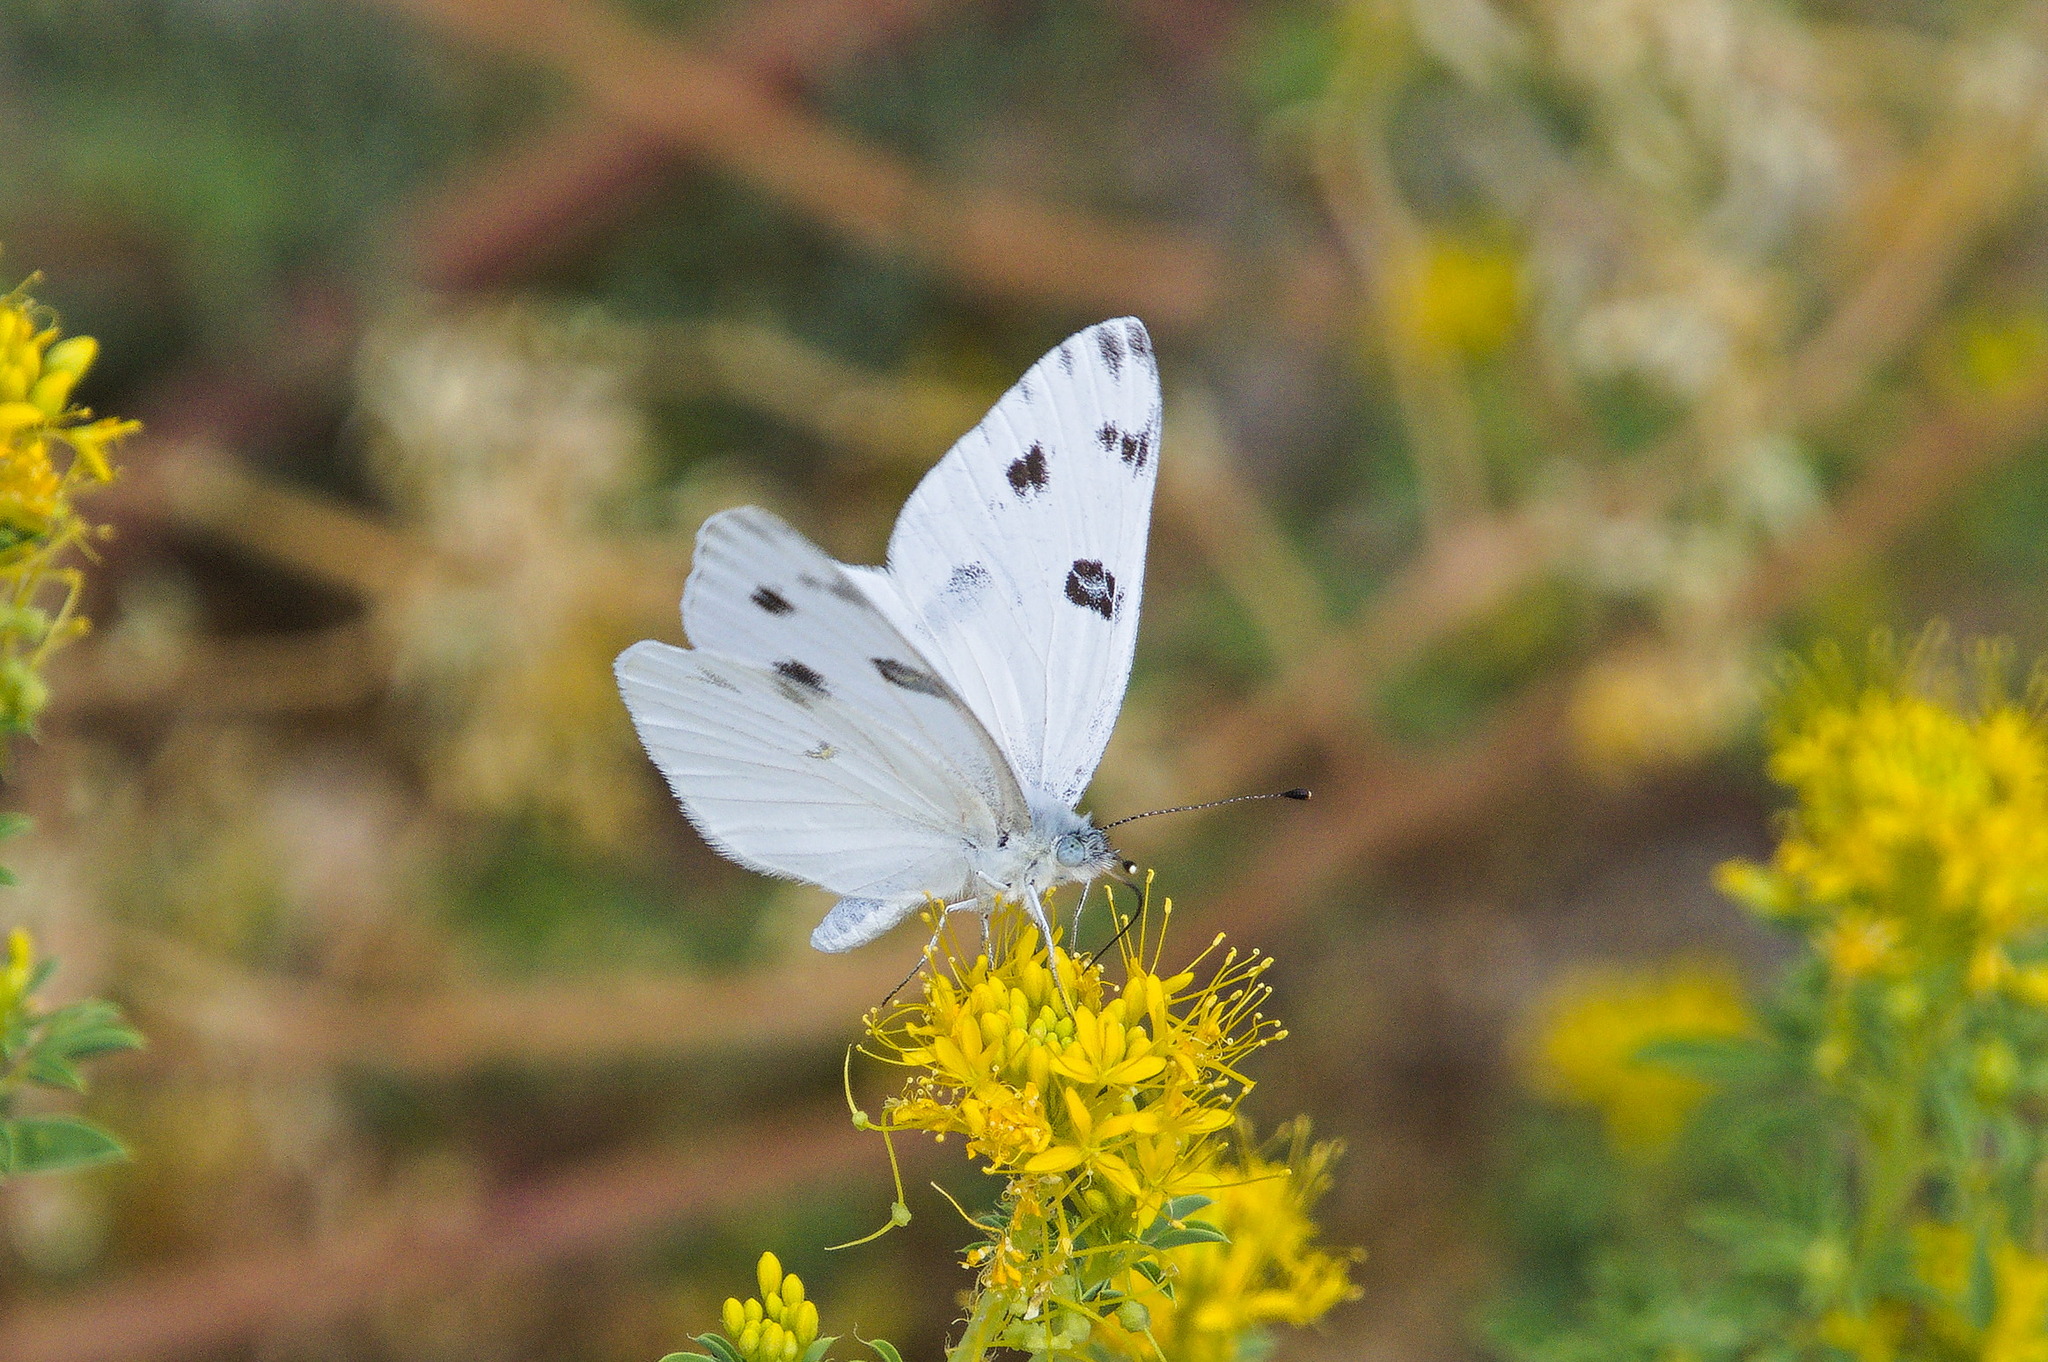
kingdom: Animalia
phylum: Arthropoda
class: Insecta
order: Lepidoptera
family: Pieridae
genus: Pontia
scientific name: Pontia protodice
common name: Checkered white
